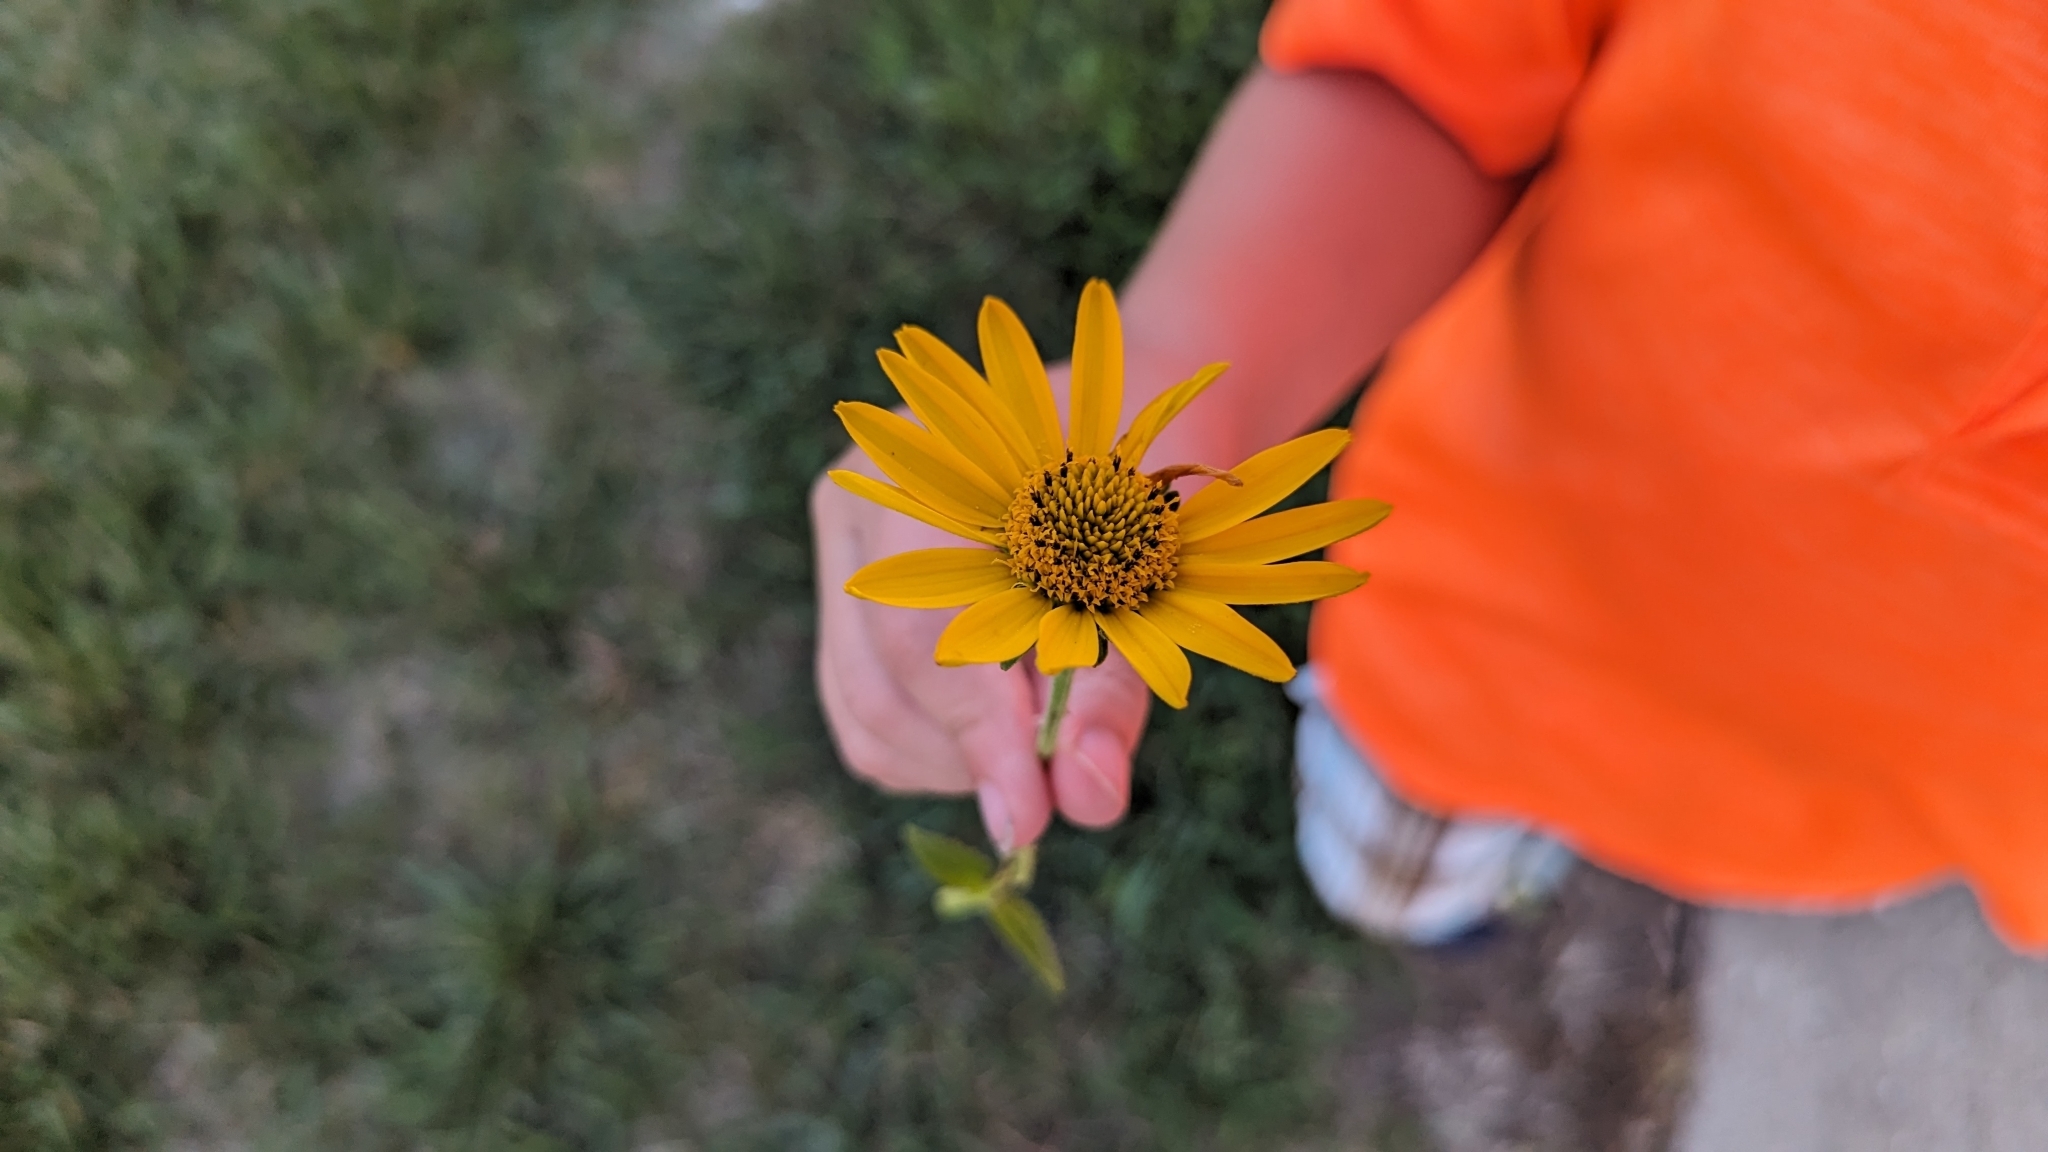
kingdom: Plantae
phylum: Tracheophyta
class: Magnoliopsida
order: Asterales
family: Asteraceae
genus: Heliopsis
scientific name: Heliopsis helianthoides
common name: False sunflower
